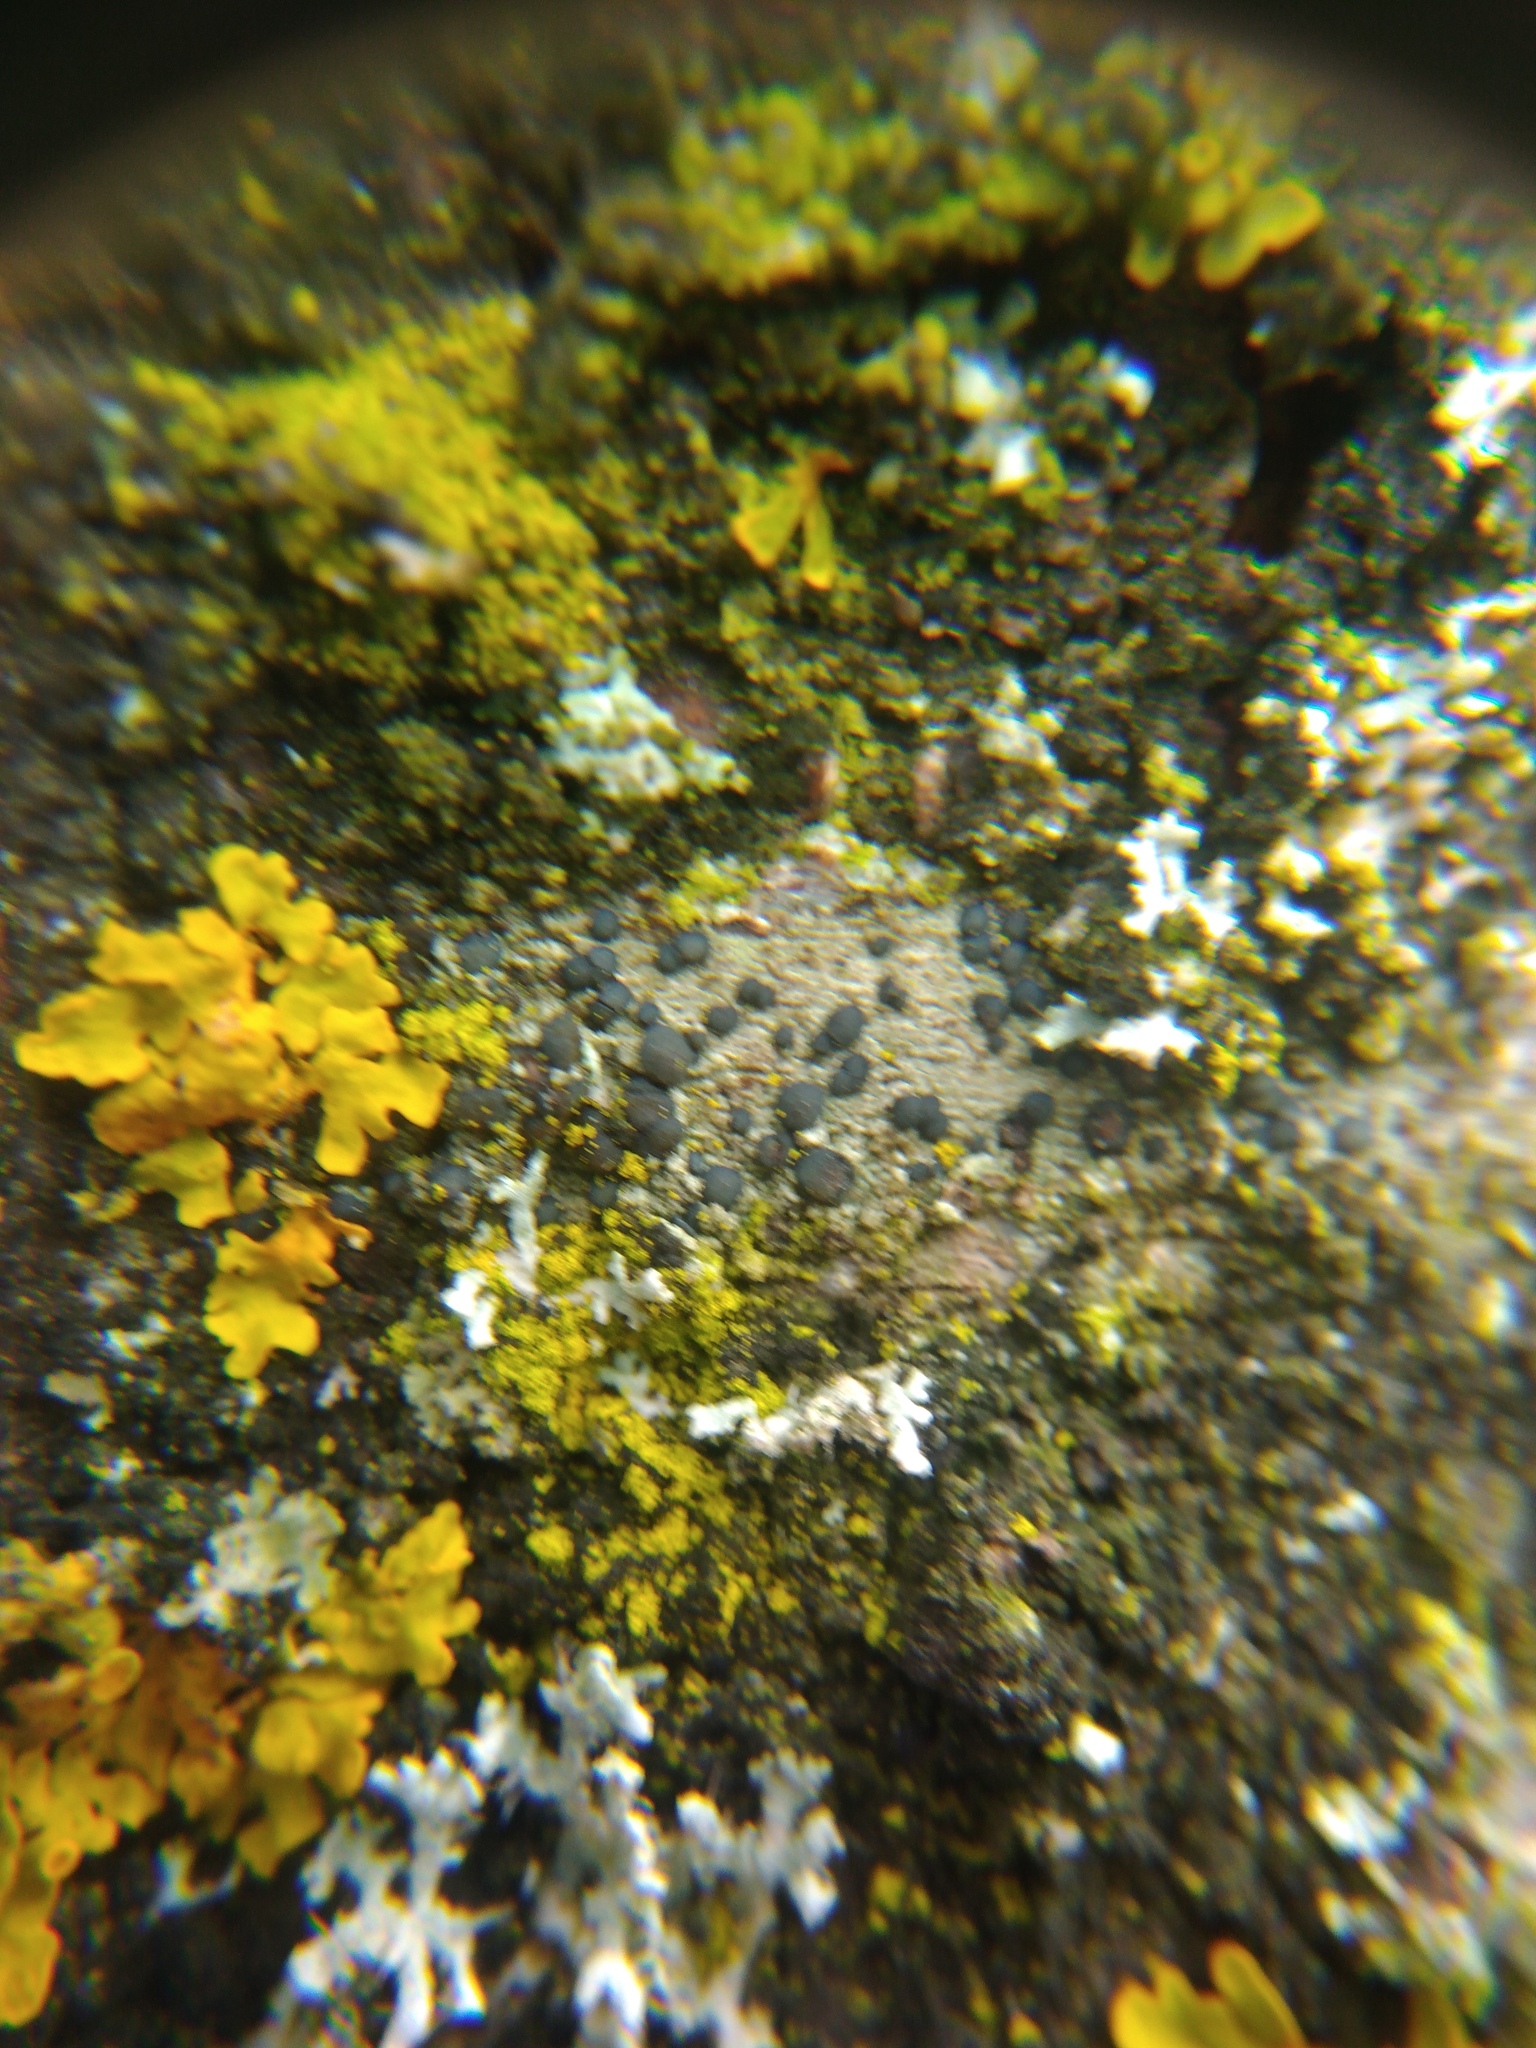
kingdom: Fungi
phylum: Ascomycota
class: Lecanoromycetes
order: Lecanorales
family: Lecanoraceae
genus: Lecidella
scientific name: Lecidella elaeochroma
